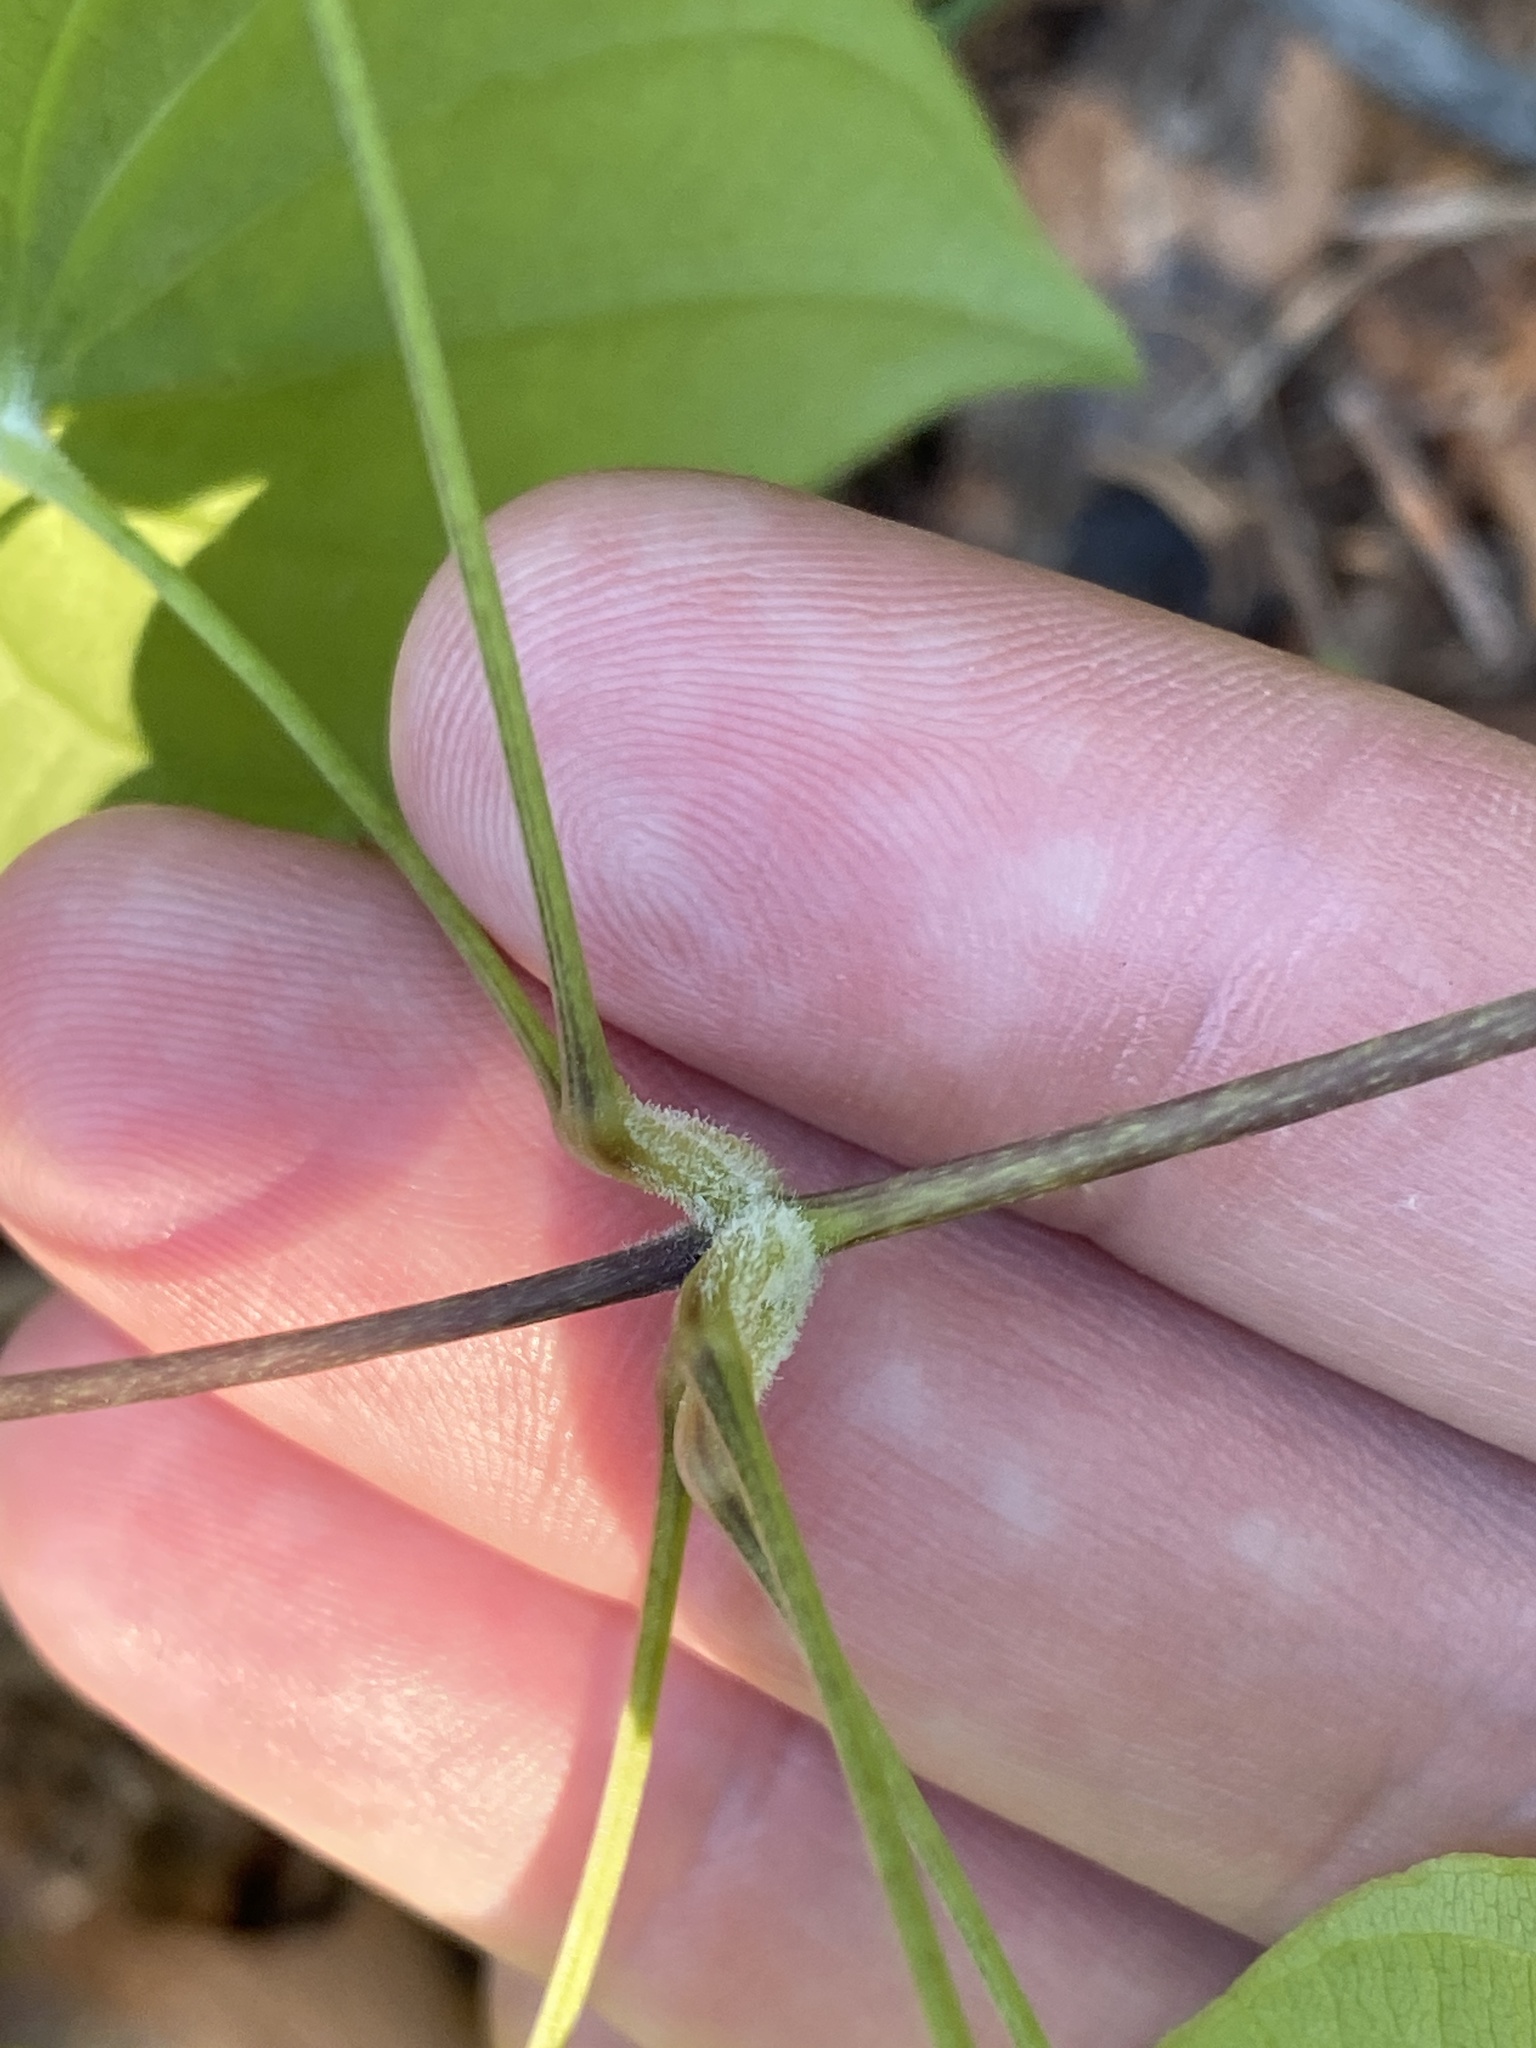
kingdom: Plantae
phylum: Tracheophyta
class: Liliopsida
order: Dioscoreales
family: Dioscoreaceae
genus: Dioscorea
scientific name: Dioscorea villosa
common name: Wild yam
